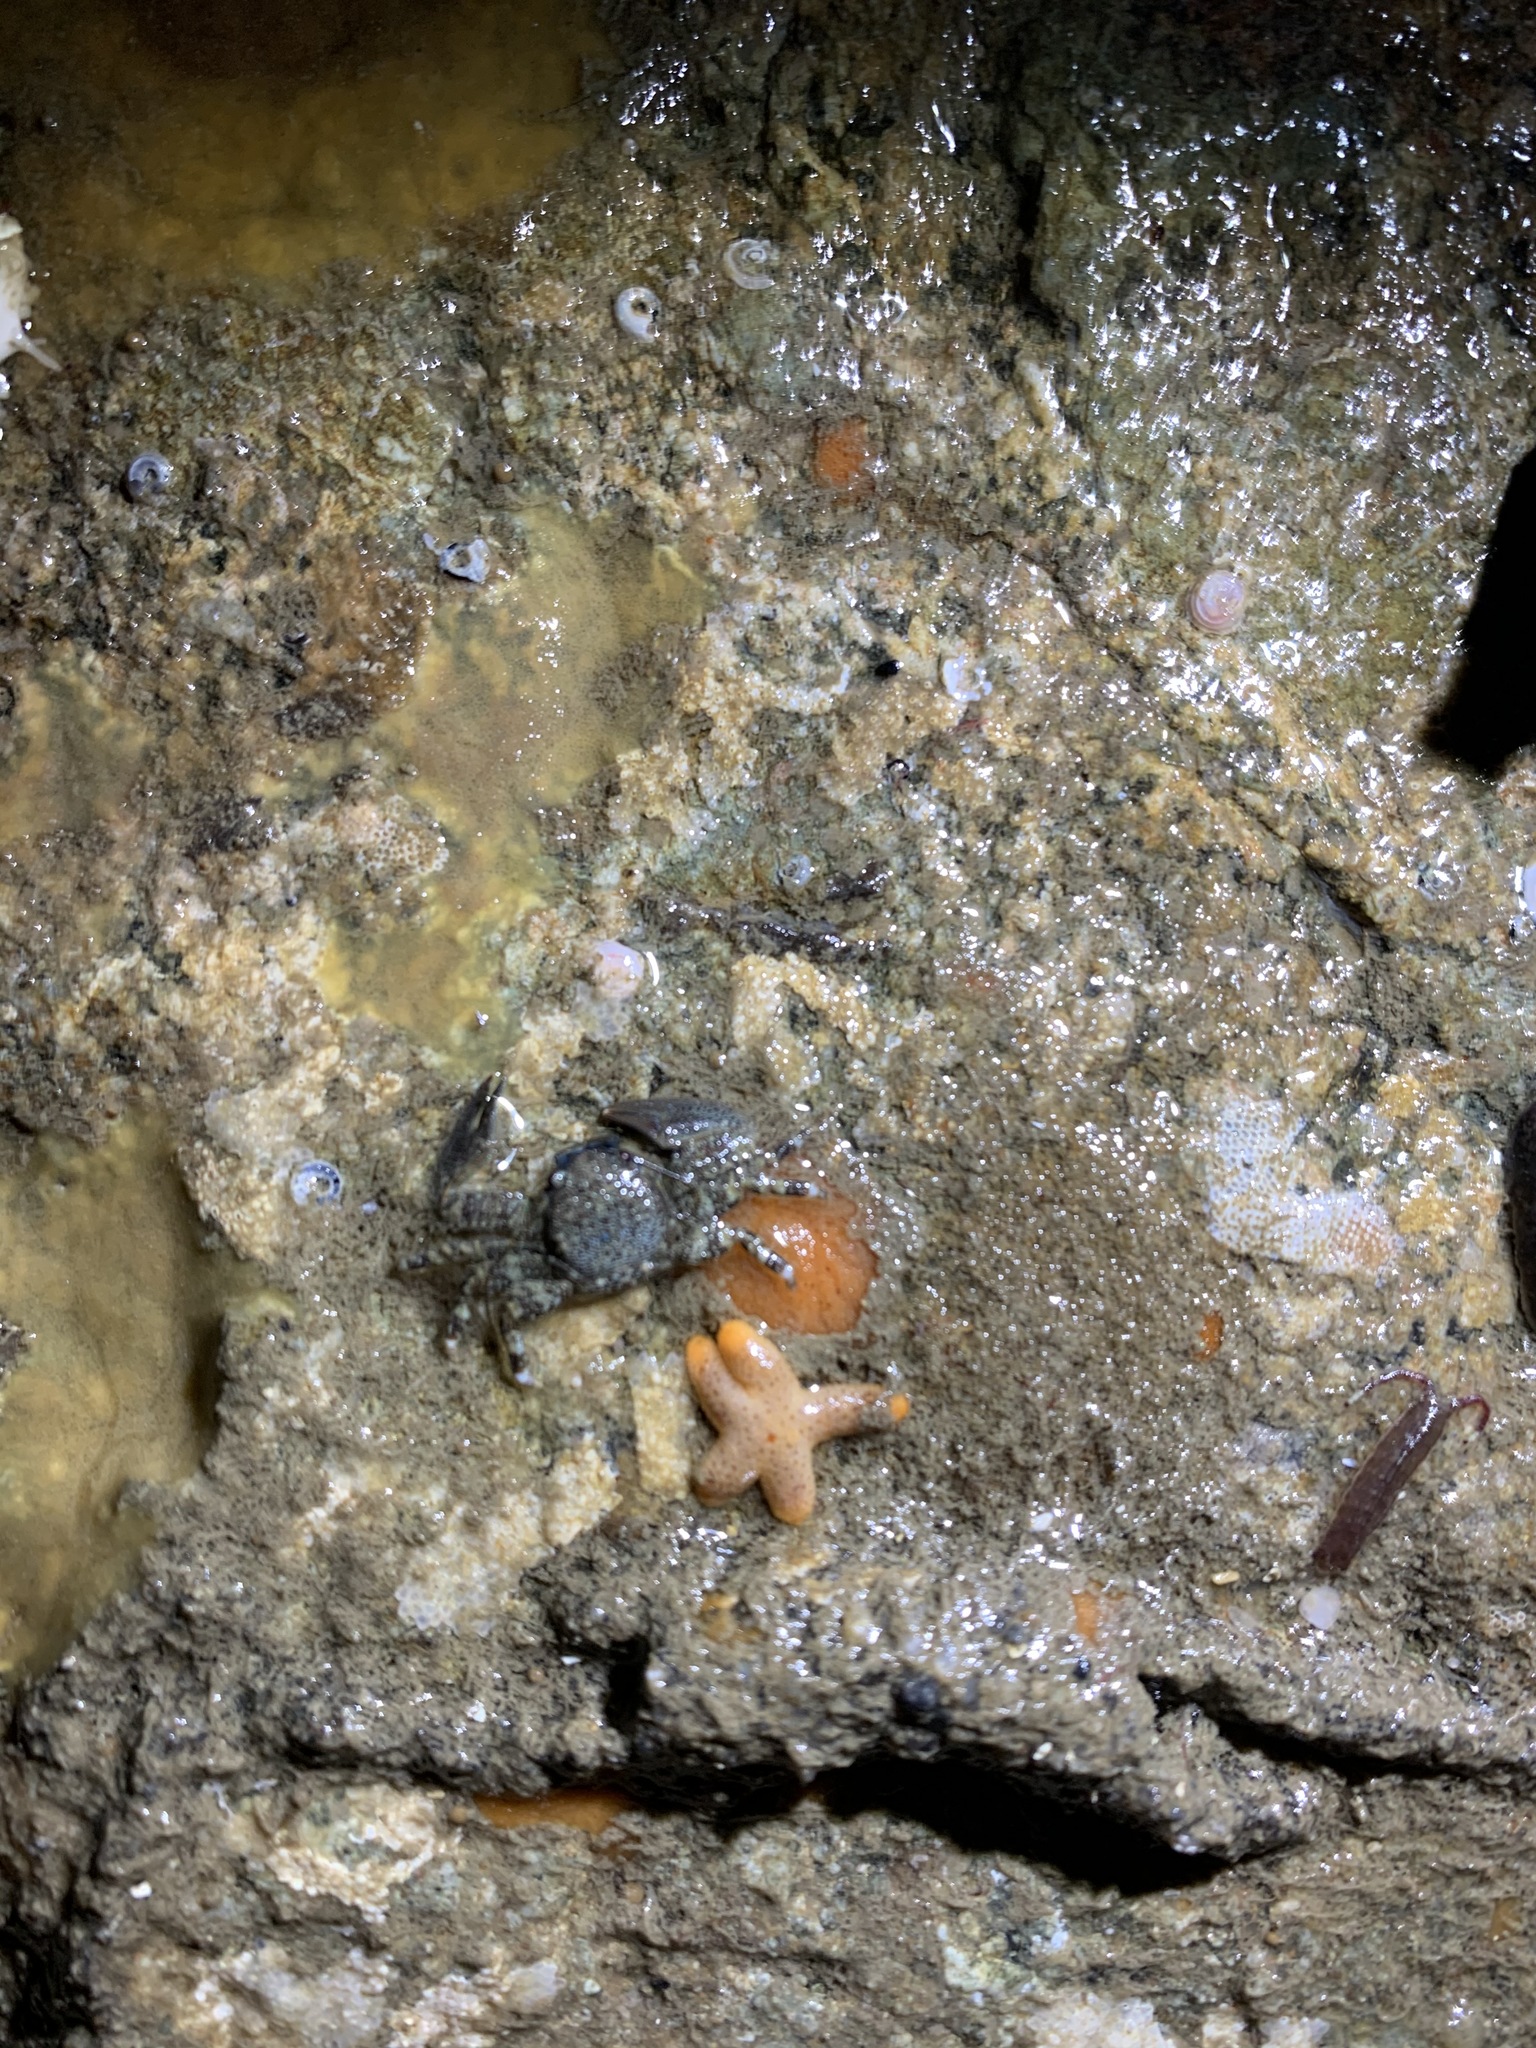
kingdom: Animalia
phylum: Arthropoda
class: Malacostraca
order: Decapoda
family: Porcellanidae
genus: Petrolisthes
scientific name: Petrolisthes eriomerus
